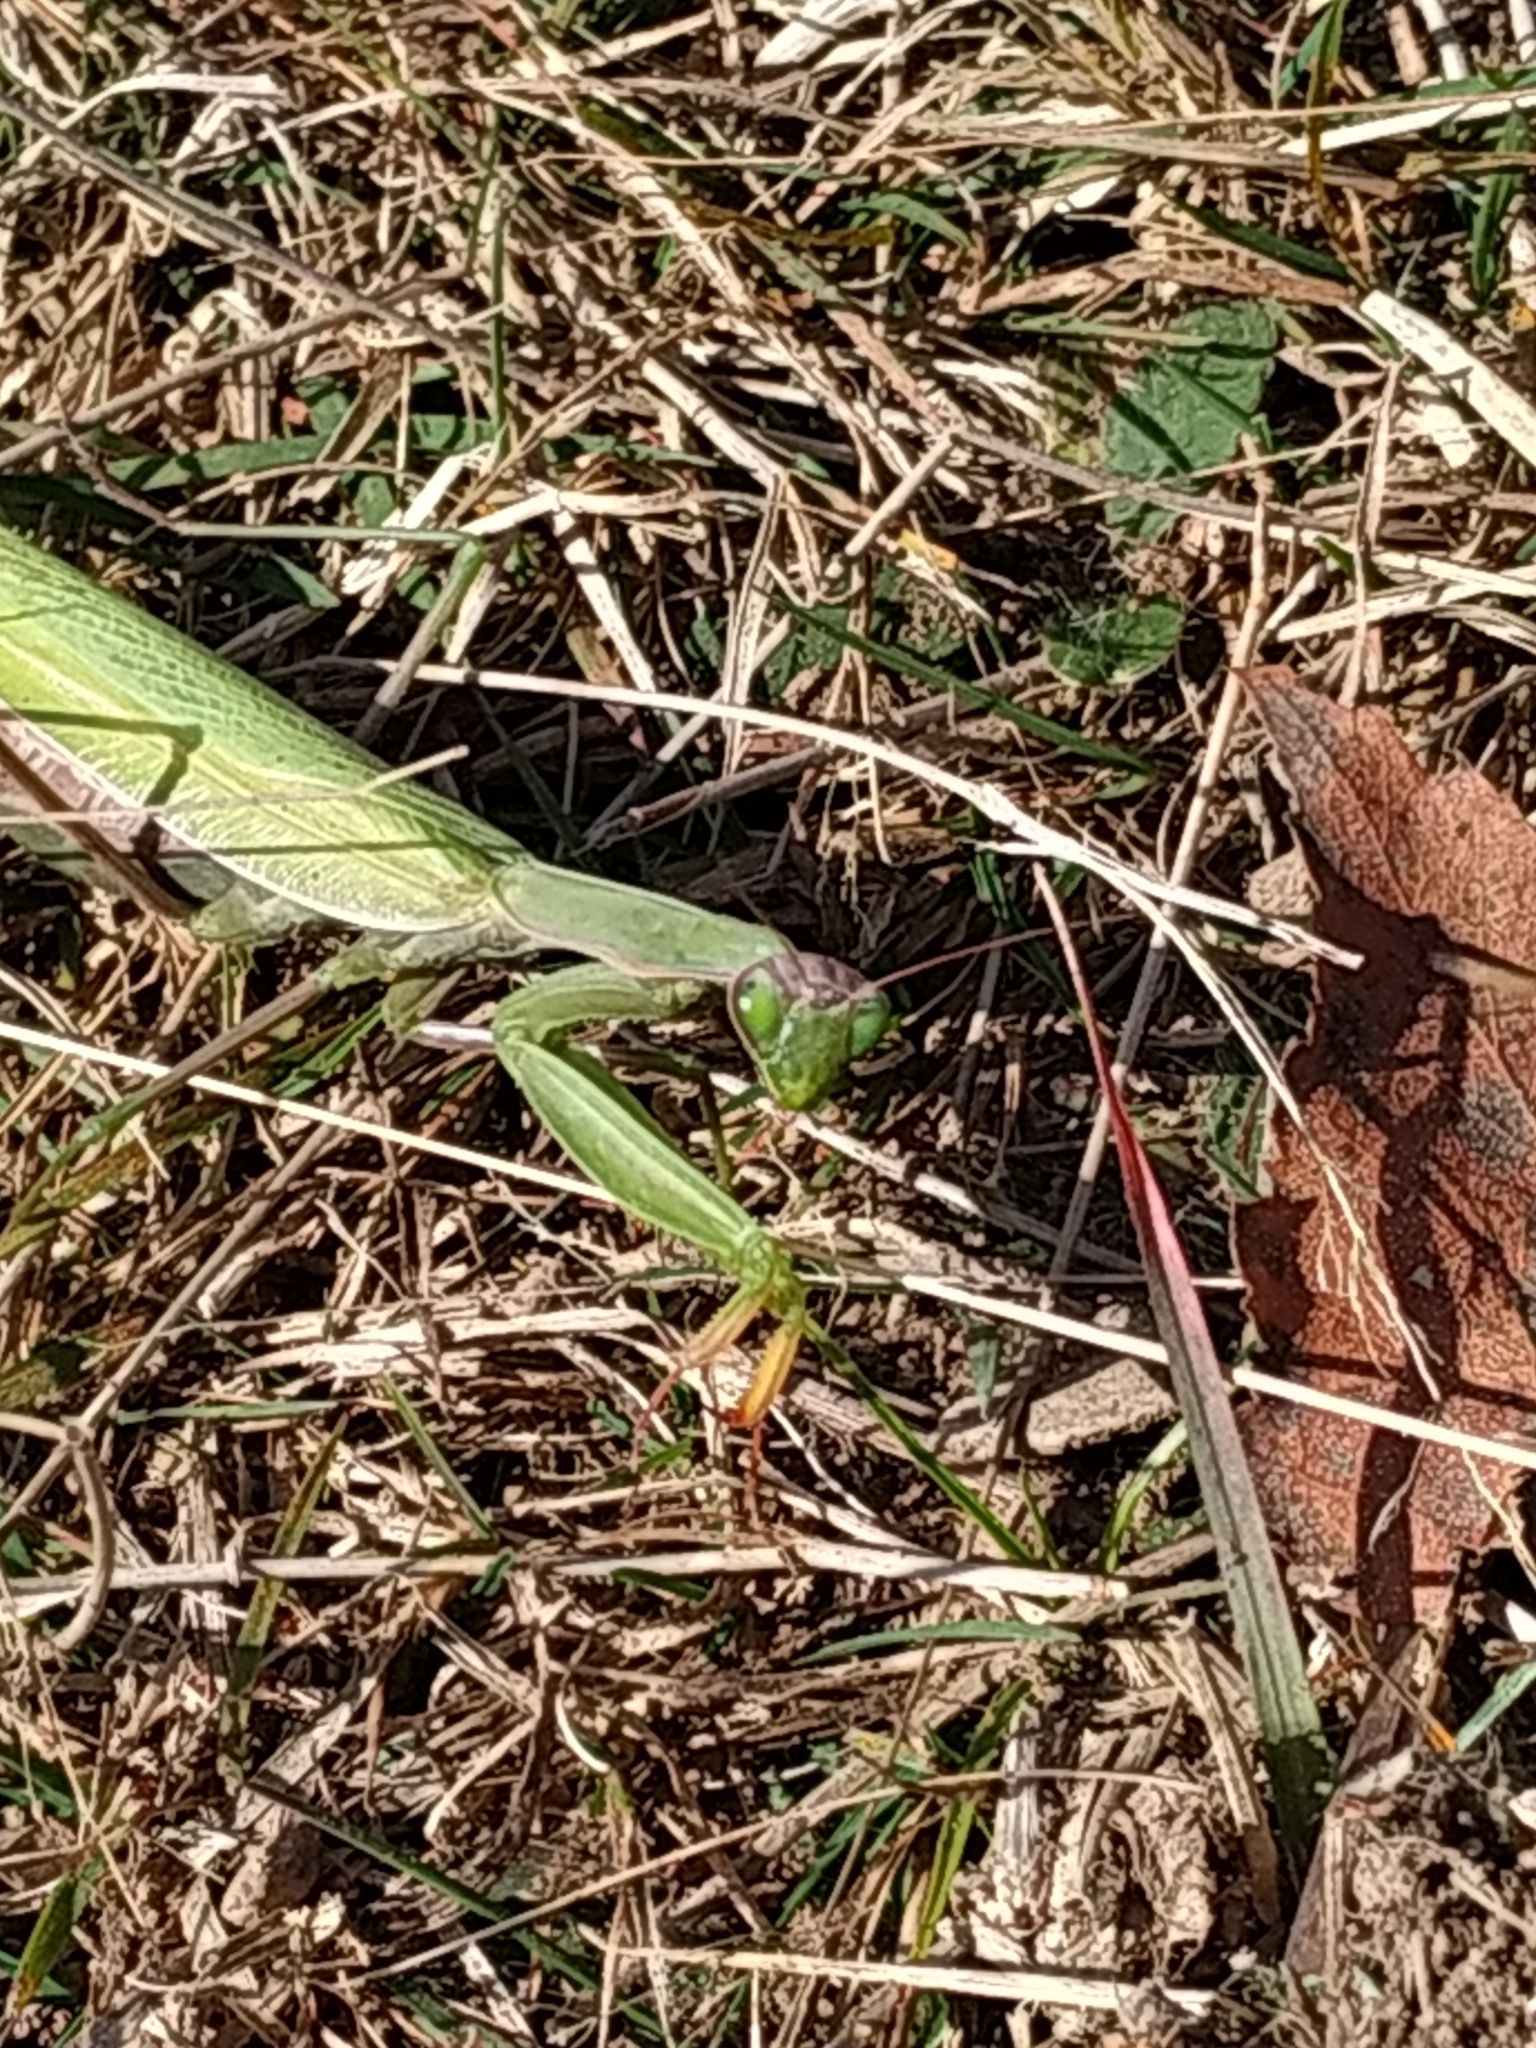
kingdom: Animalia
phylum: Arthropoda
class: Insecta
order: Mantodea
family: Mantidae
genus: Mantis
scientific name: Mantis religiosa
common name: Praying mantis
